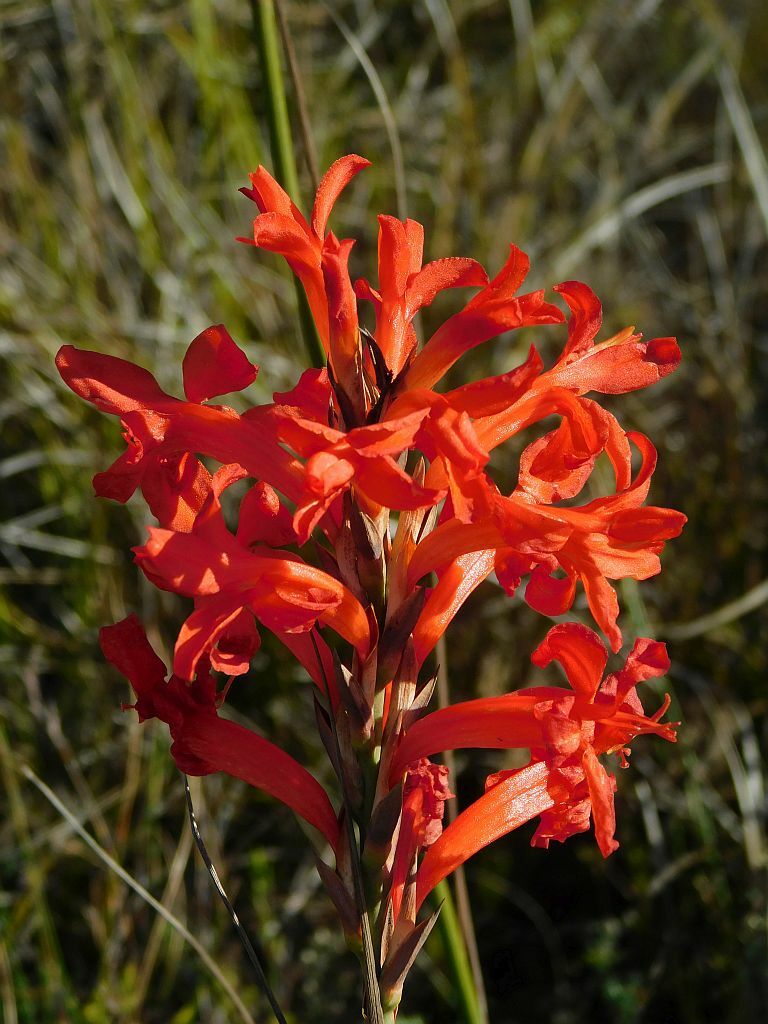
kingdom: Plantae
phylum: Tracheophyta
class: Liliopsida
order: Asparagales
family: Iridaceae
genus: Tritoniopsis
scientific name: Tritoniopsis triticea
